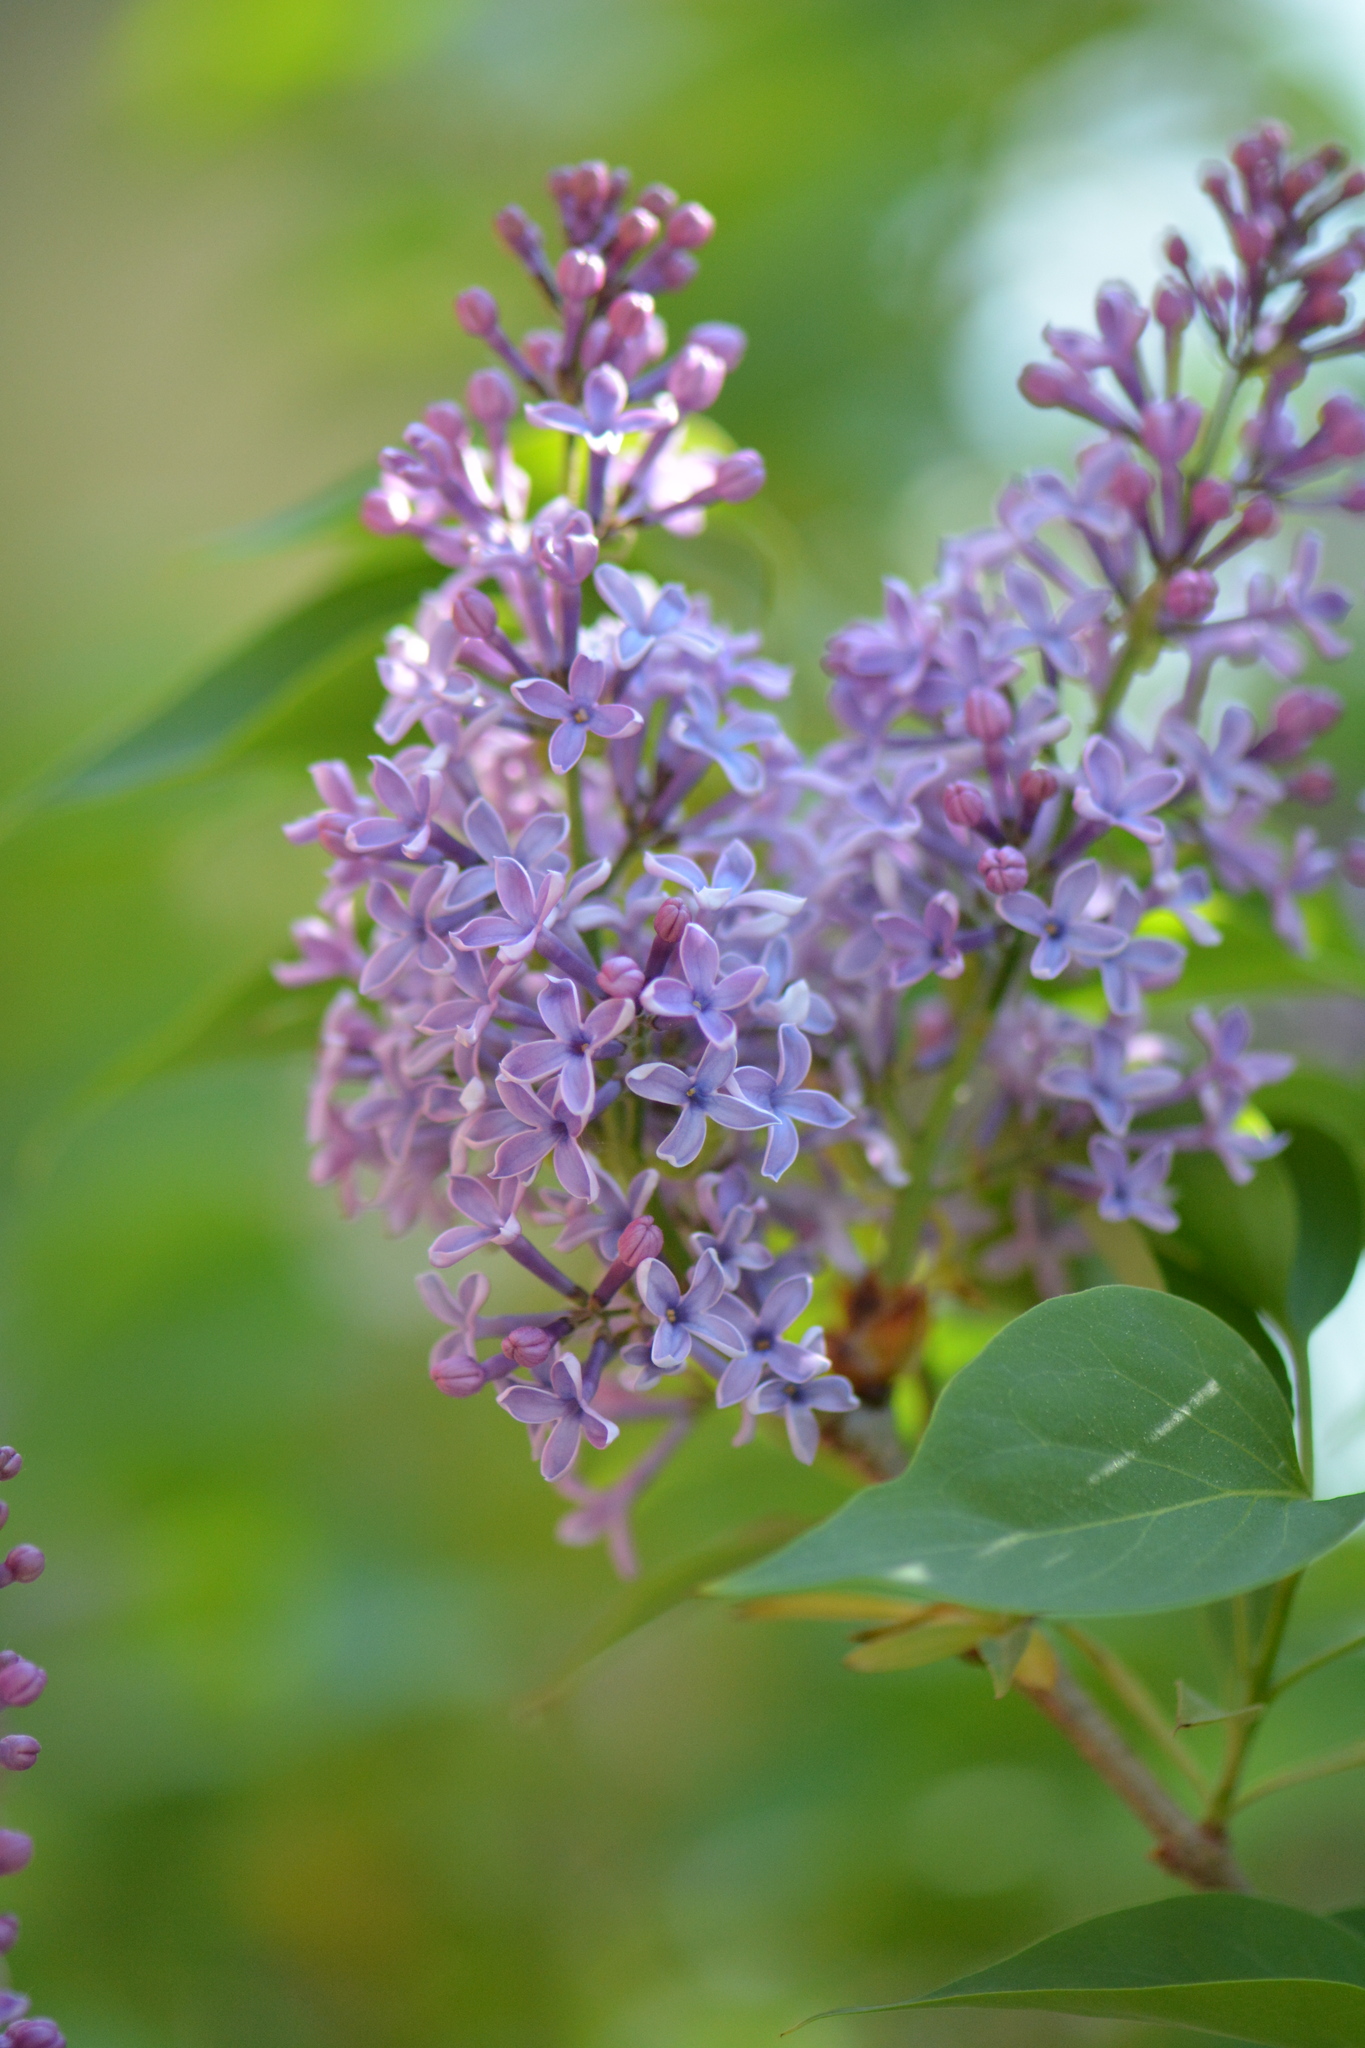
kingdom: Plantae
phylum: Tracheophyta
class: Magnoliopsida
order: Lamiales
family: Oleaceae
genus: Syringa
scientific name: Syringa vulgaris
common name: Common lilac
